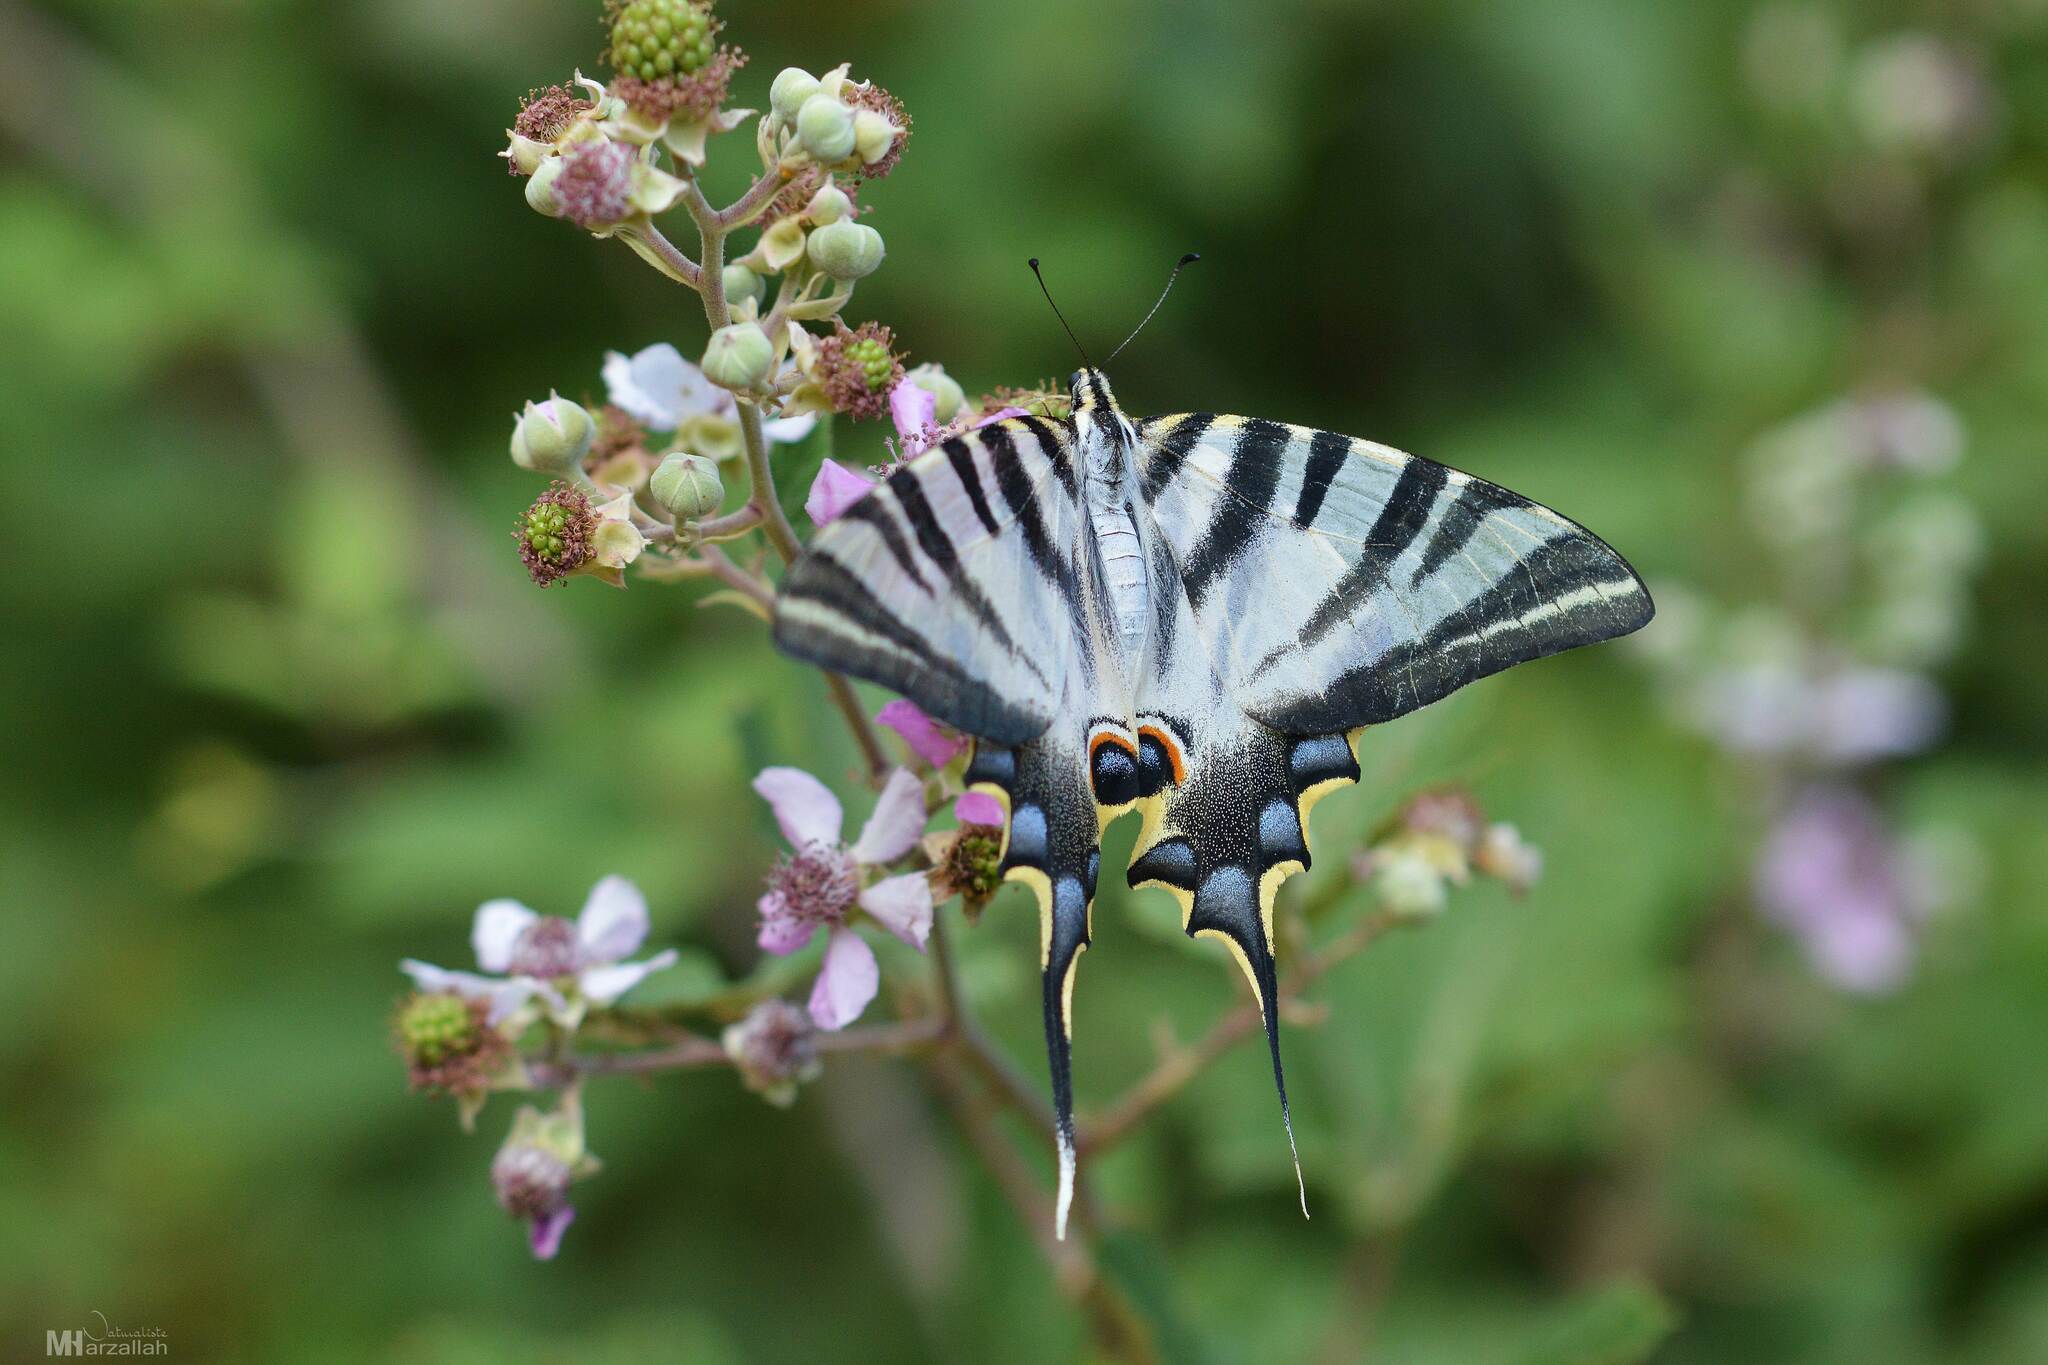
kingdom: Animalia
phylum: Arthropoda
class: Insecta
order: Lepidoptera
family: Papilionidae
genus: Iphiclides
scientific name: Iphiclides feisthamelii
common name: Iberian scarce swallowtail
